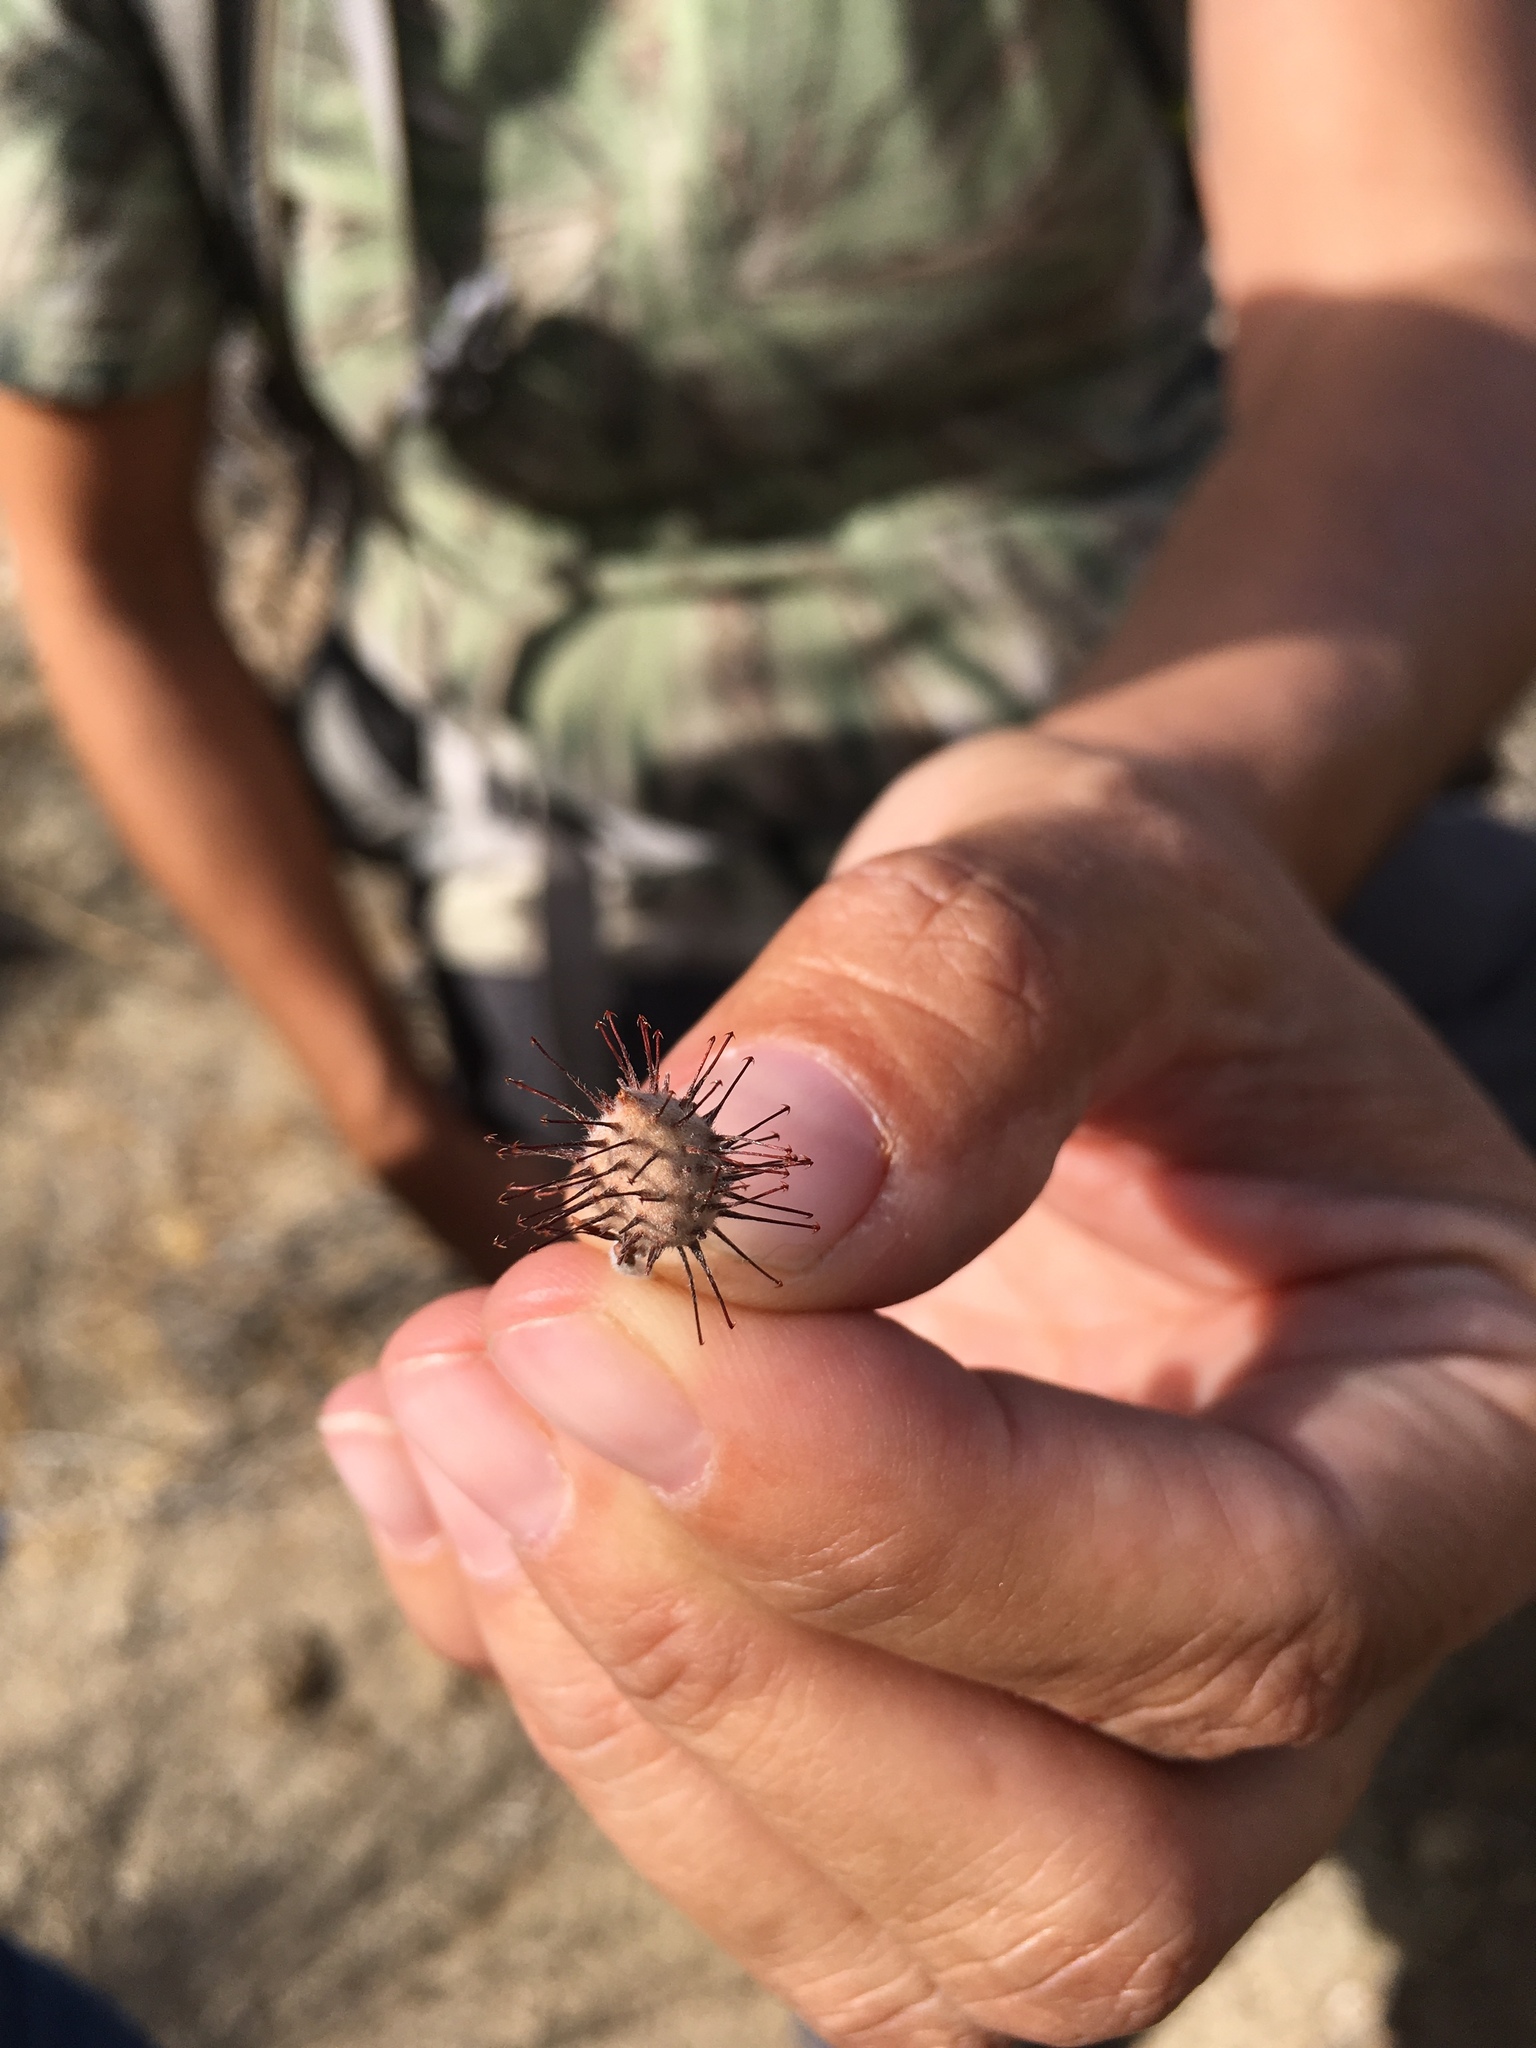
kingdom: Plantae
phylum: Tracheophyta
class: Magnoliopsida
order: Zygophyllales
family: Krameriaceae
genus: Krameria
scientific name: Krameria bicolor
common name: White ratany
